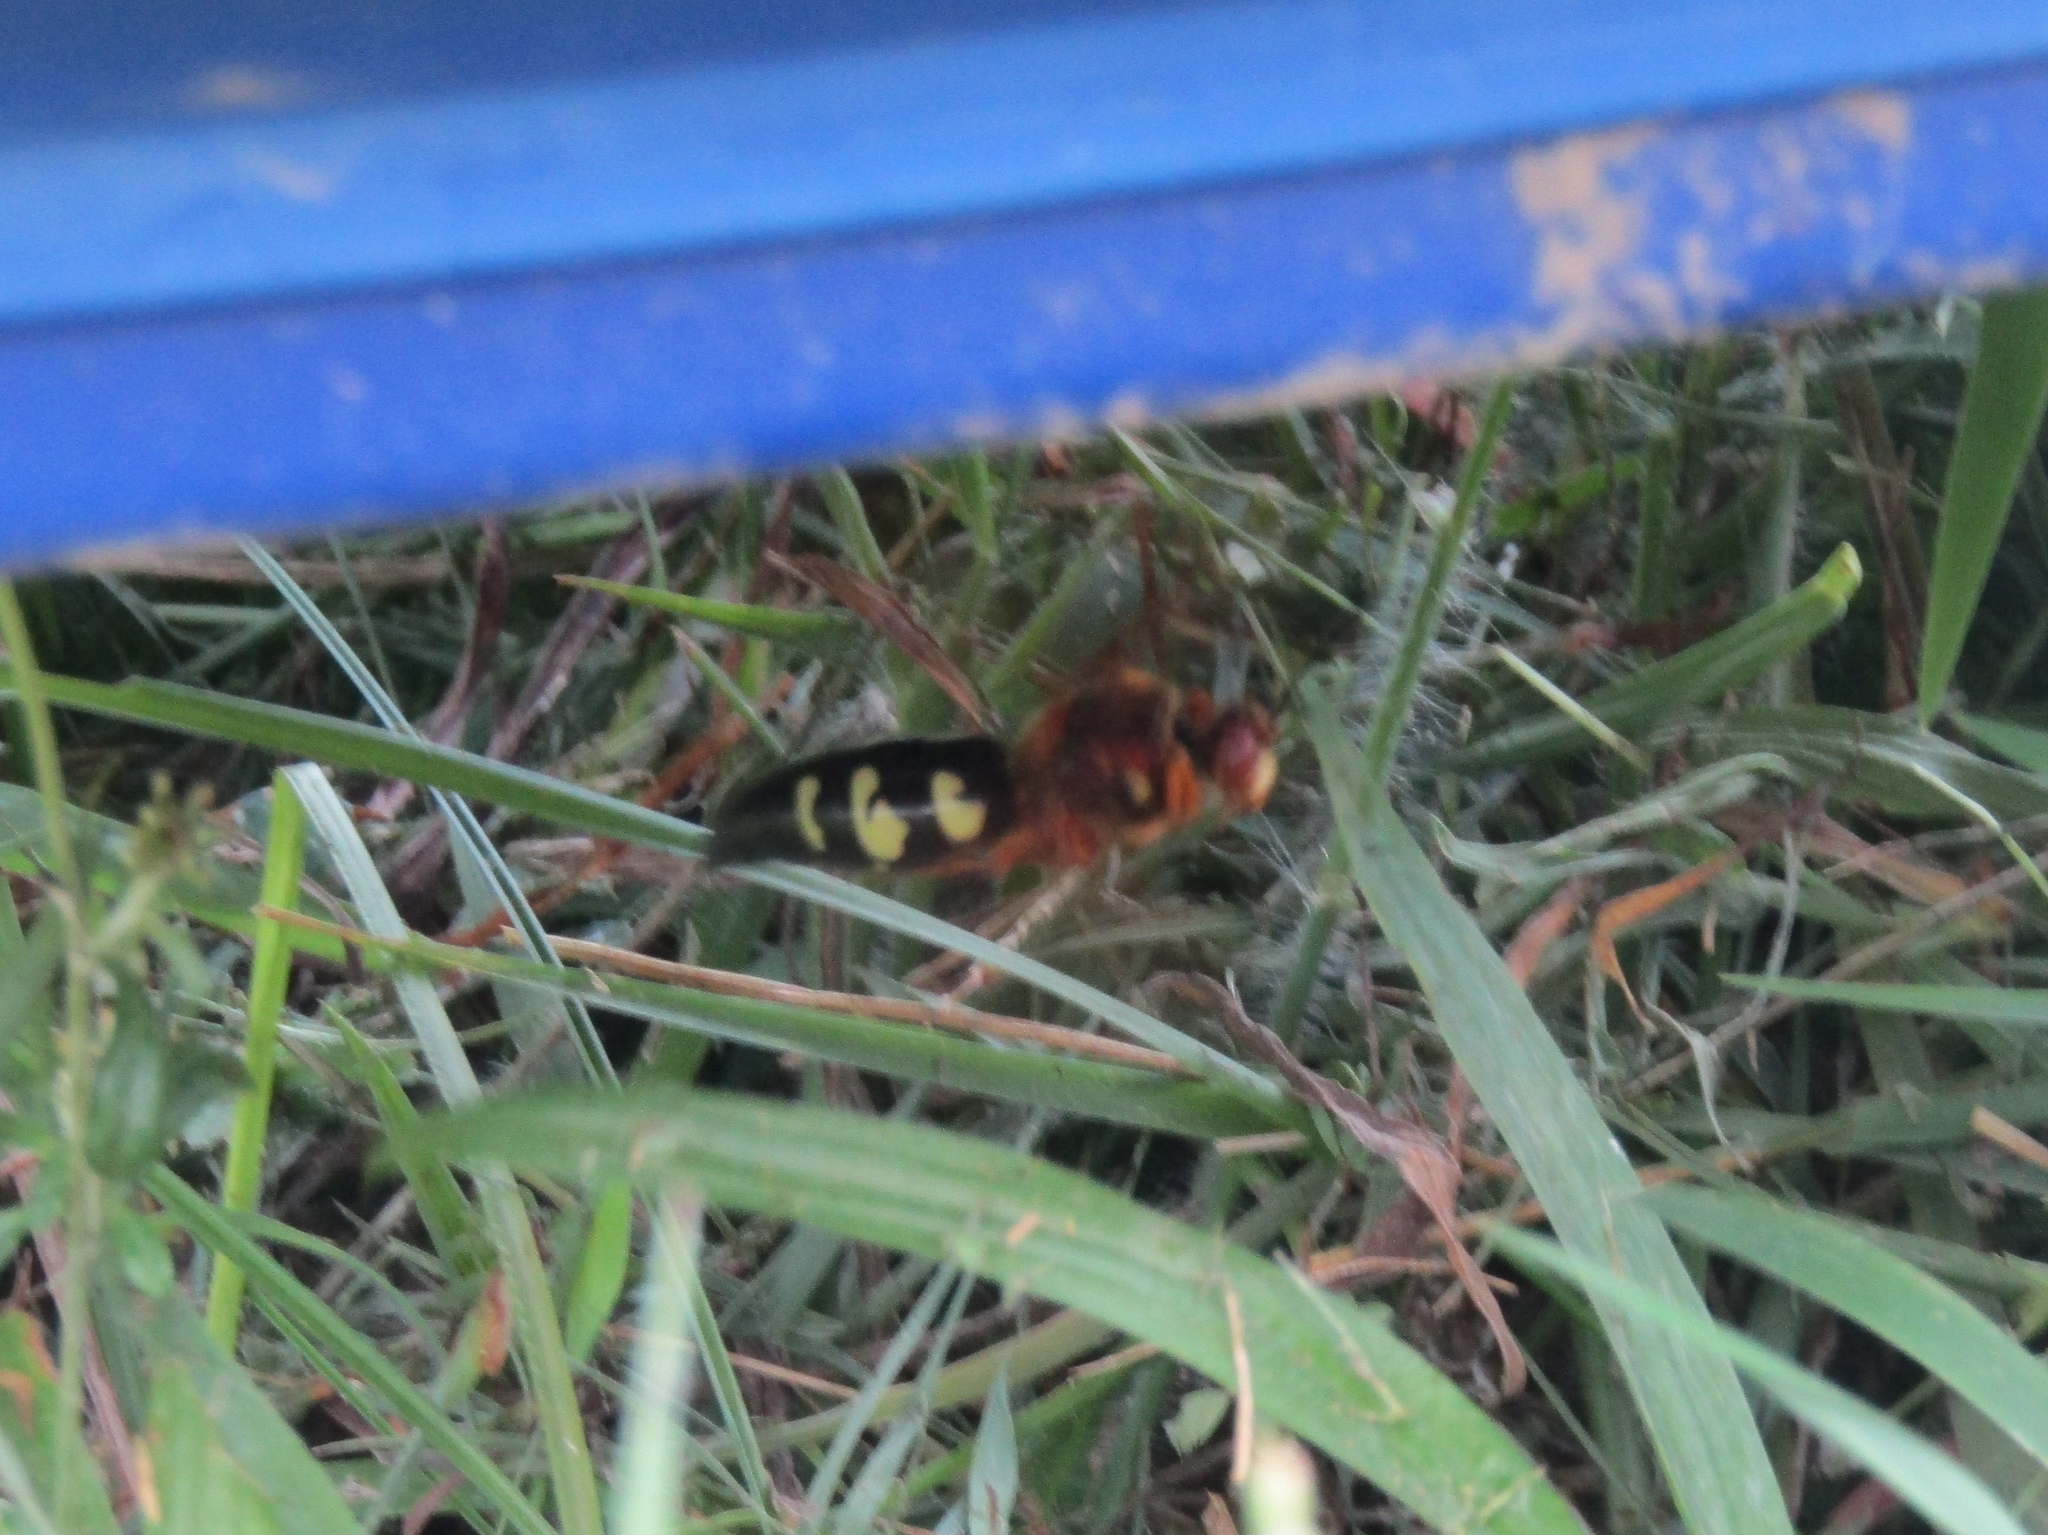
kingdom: Animalia
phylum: Arthropoda
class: Insecta
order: Hymenoptera
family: Crabronidae
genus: Sphecius
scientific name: Sphecius speciosus
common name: Cicada killer
